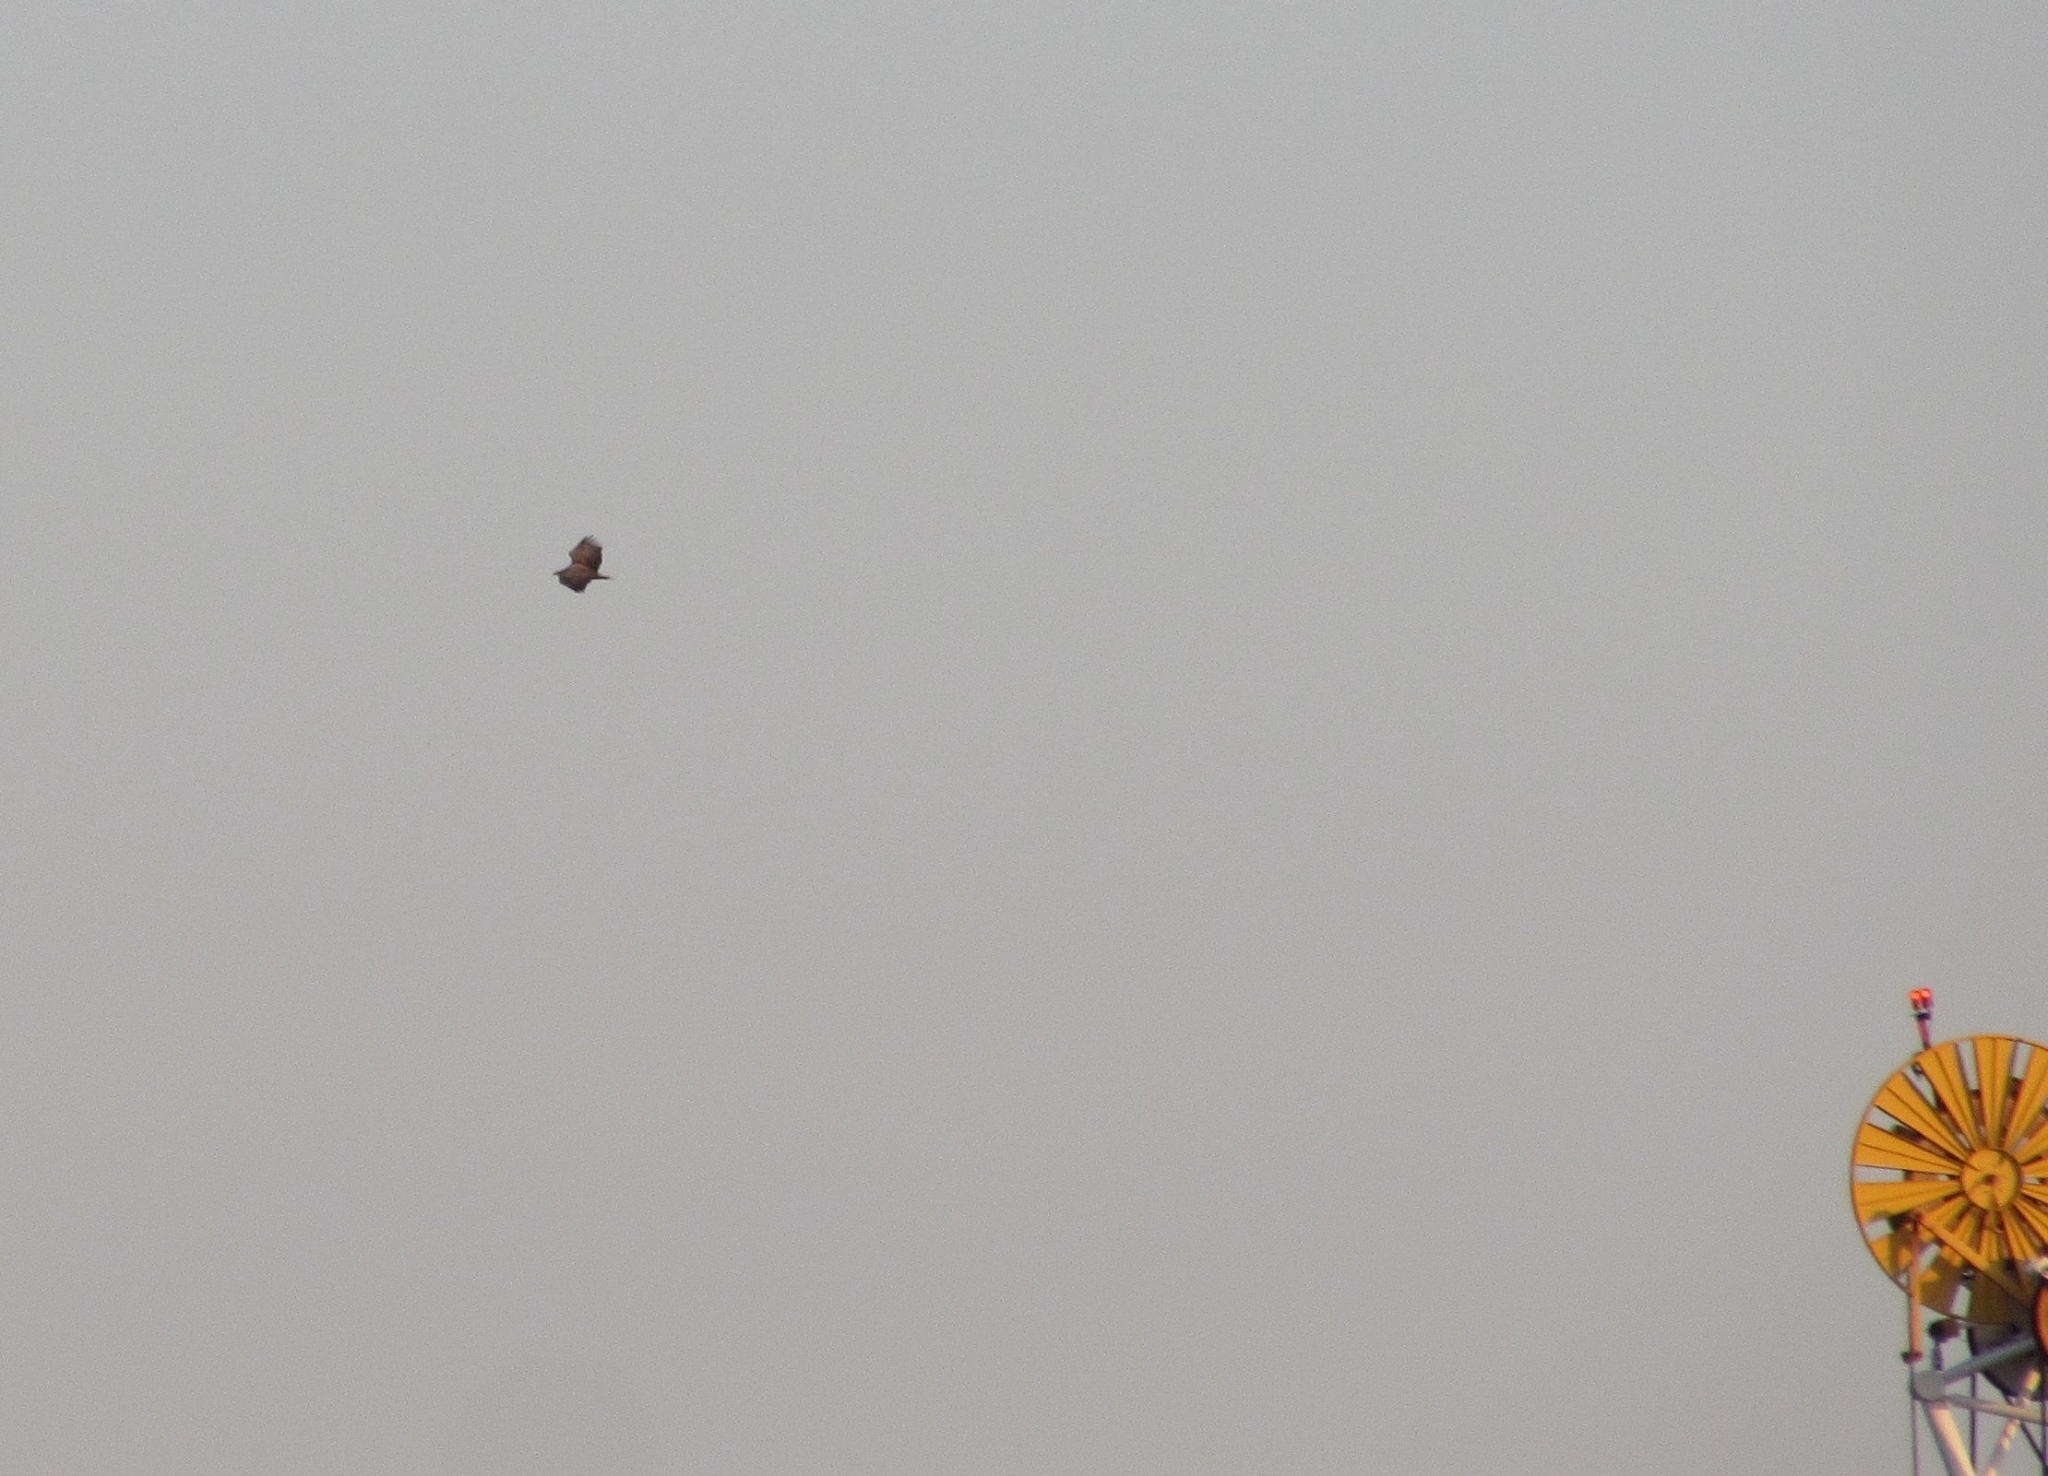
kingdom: Animalia
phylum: Chordata
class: Aves
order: Accipitriformes
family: Accipitridae
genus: Haliaeetus
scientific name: Haliaeetus albicilla
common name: White-tailed eagle
